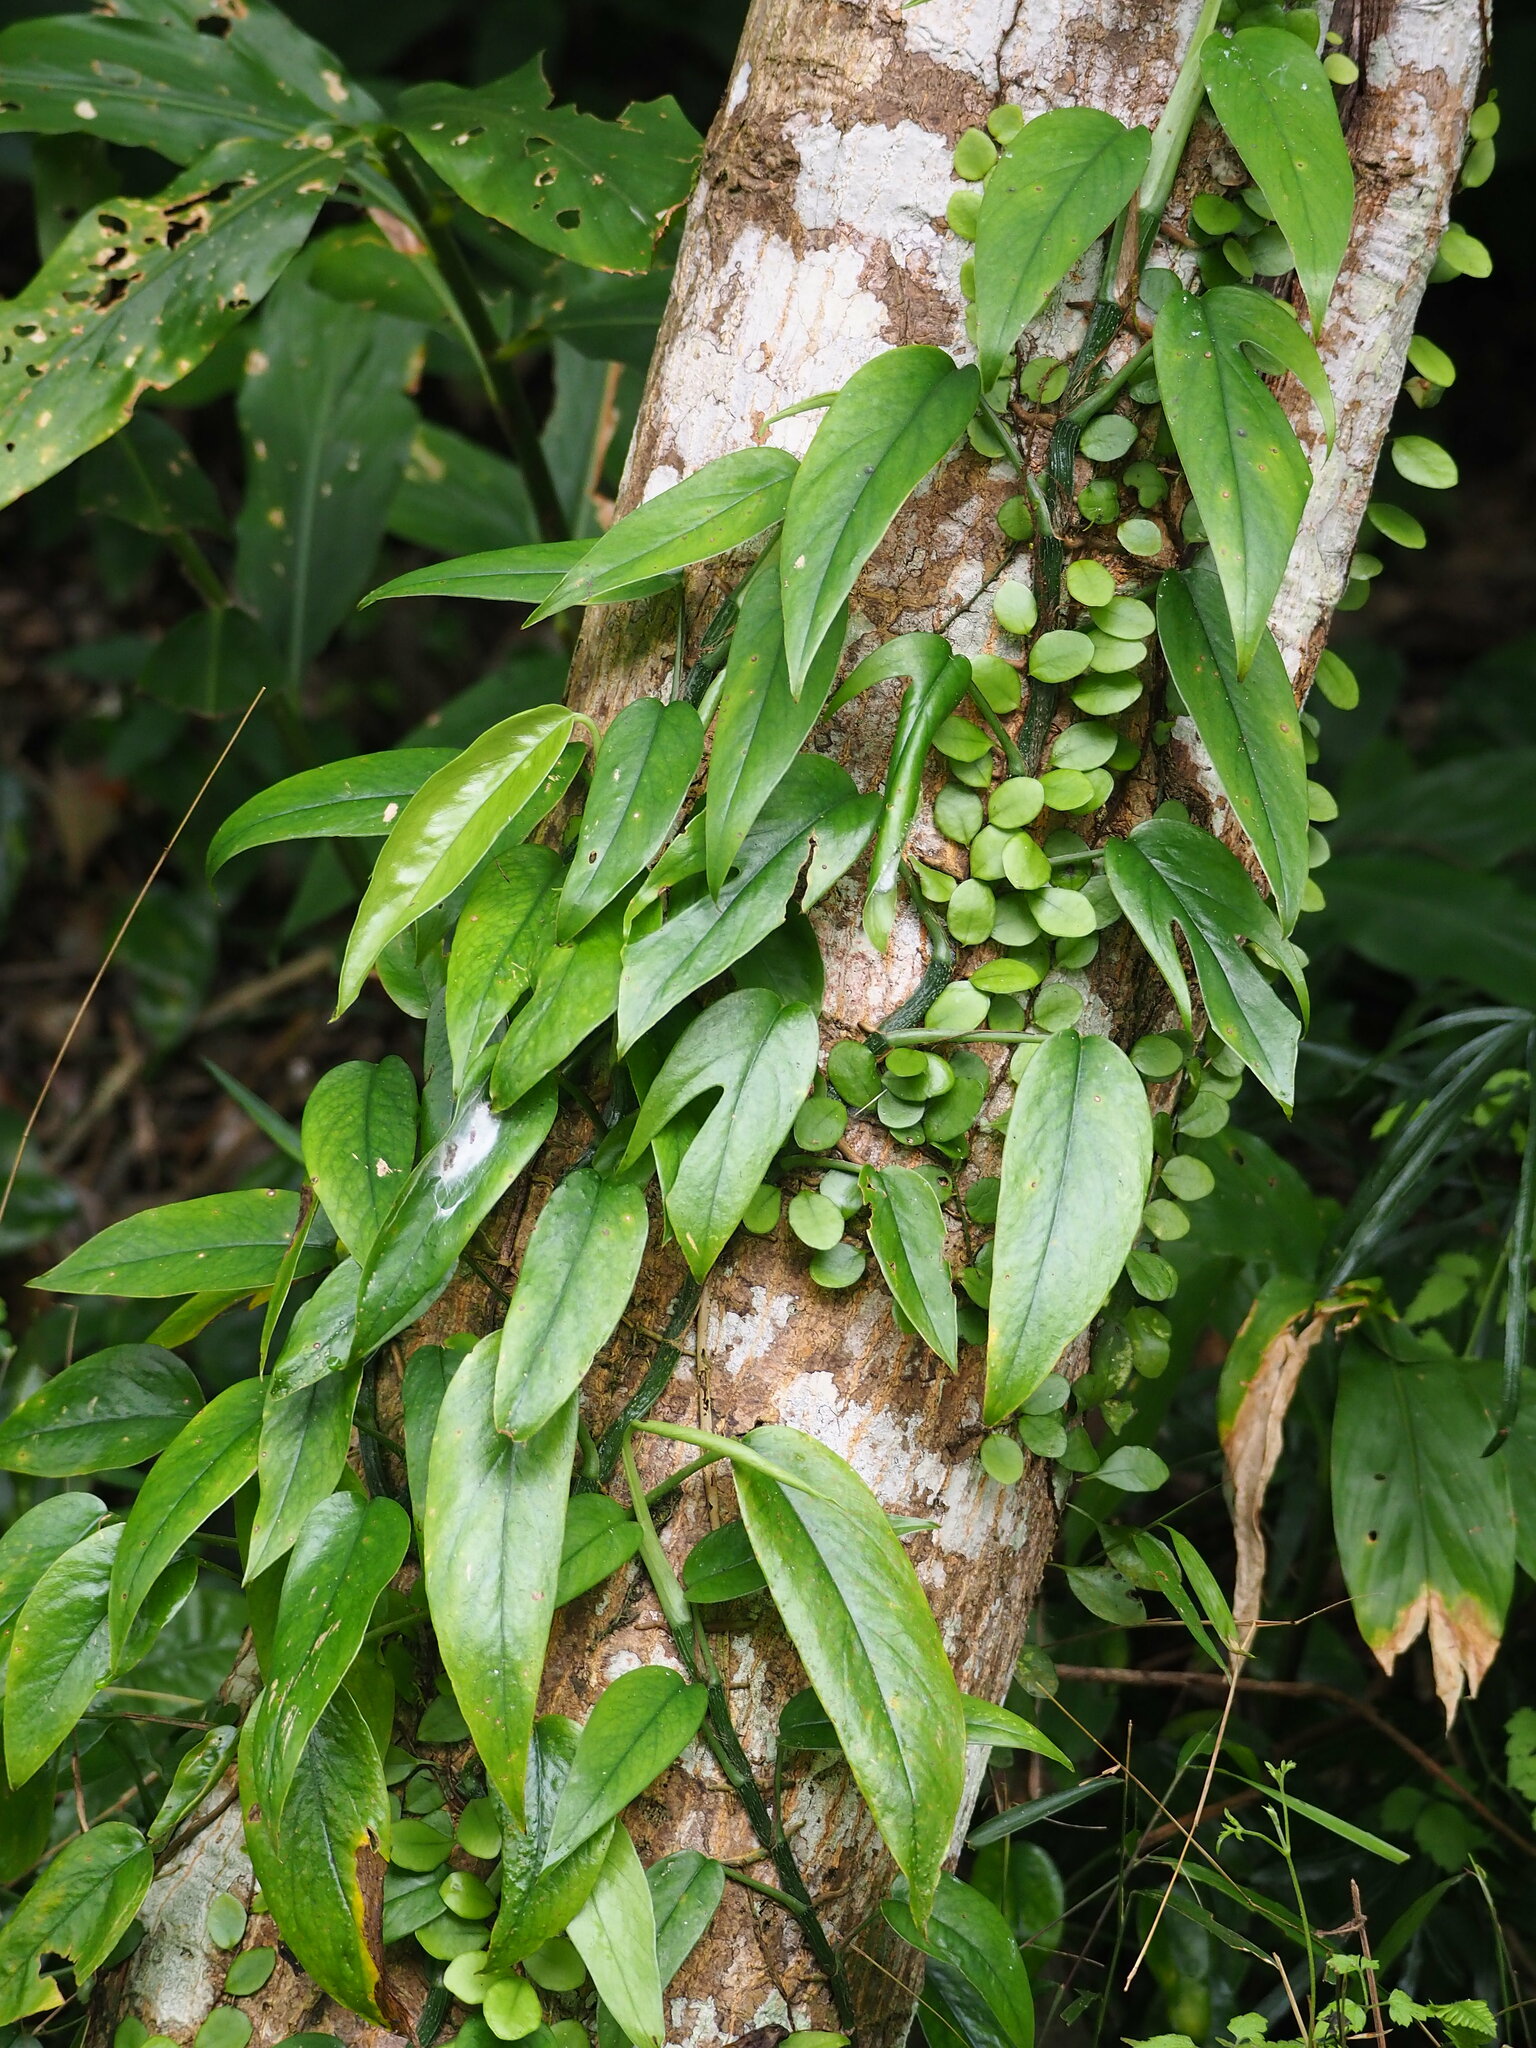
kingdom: Plantae
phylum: Tracheophyta
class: Liliopsida
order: Alismatales
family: Araceae
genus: Epipremnum
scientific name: Epipremnum pinnatum
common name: Centipede tongavine
